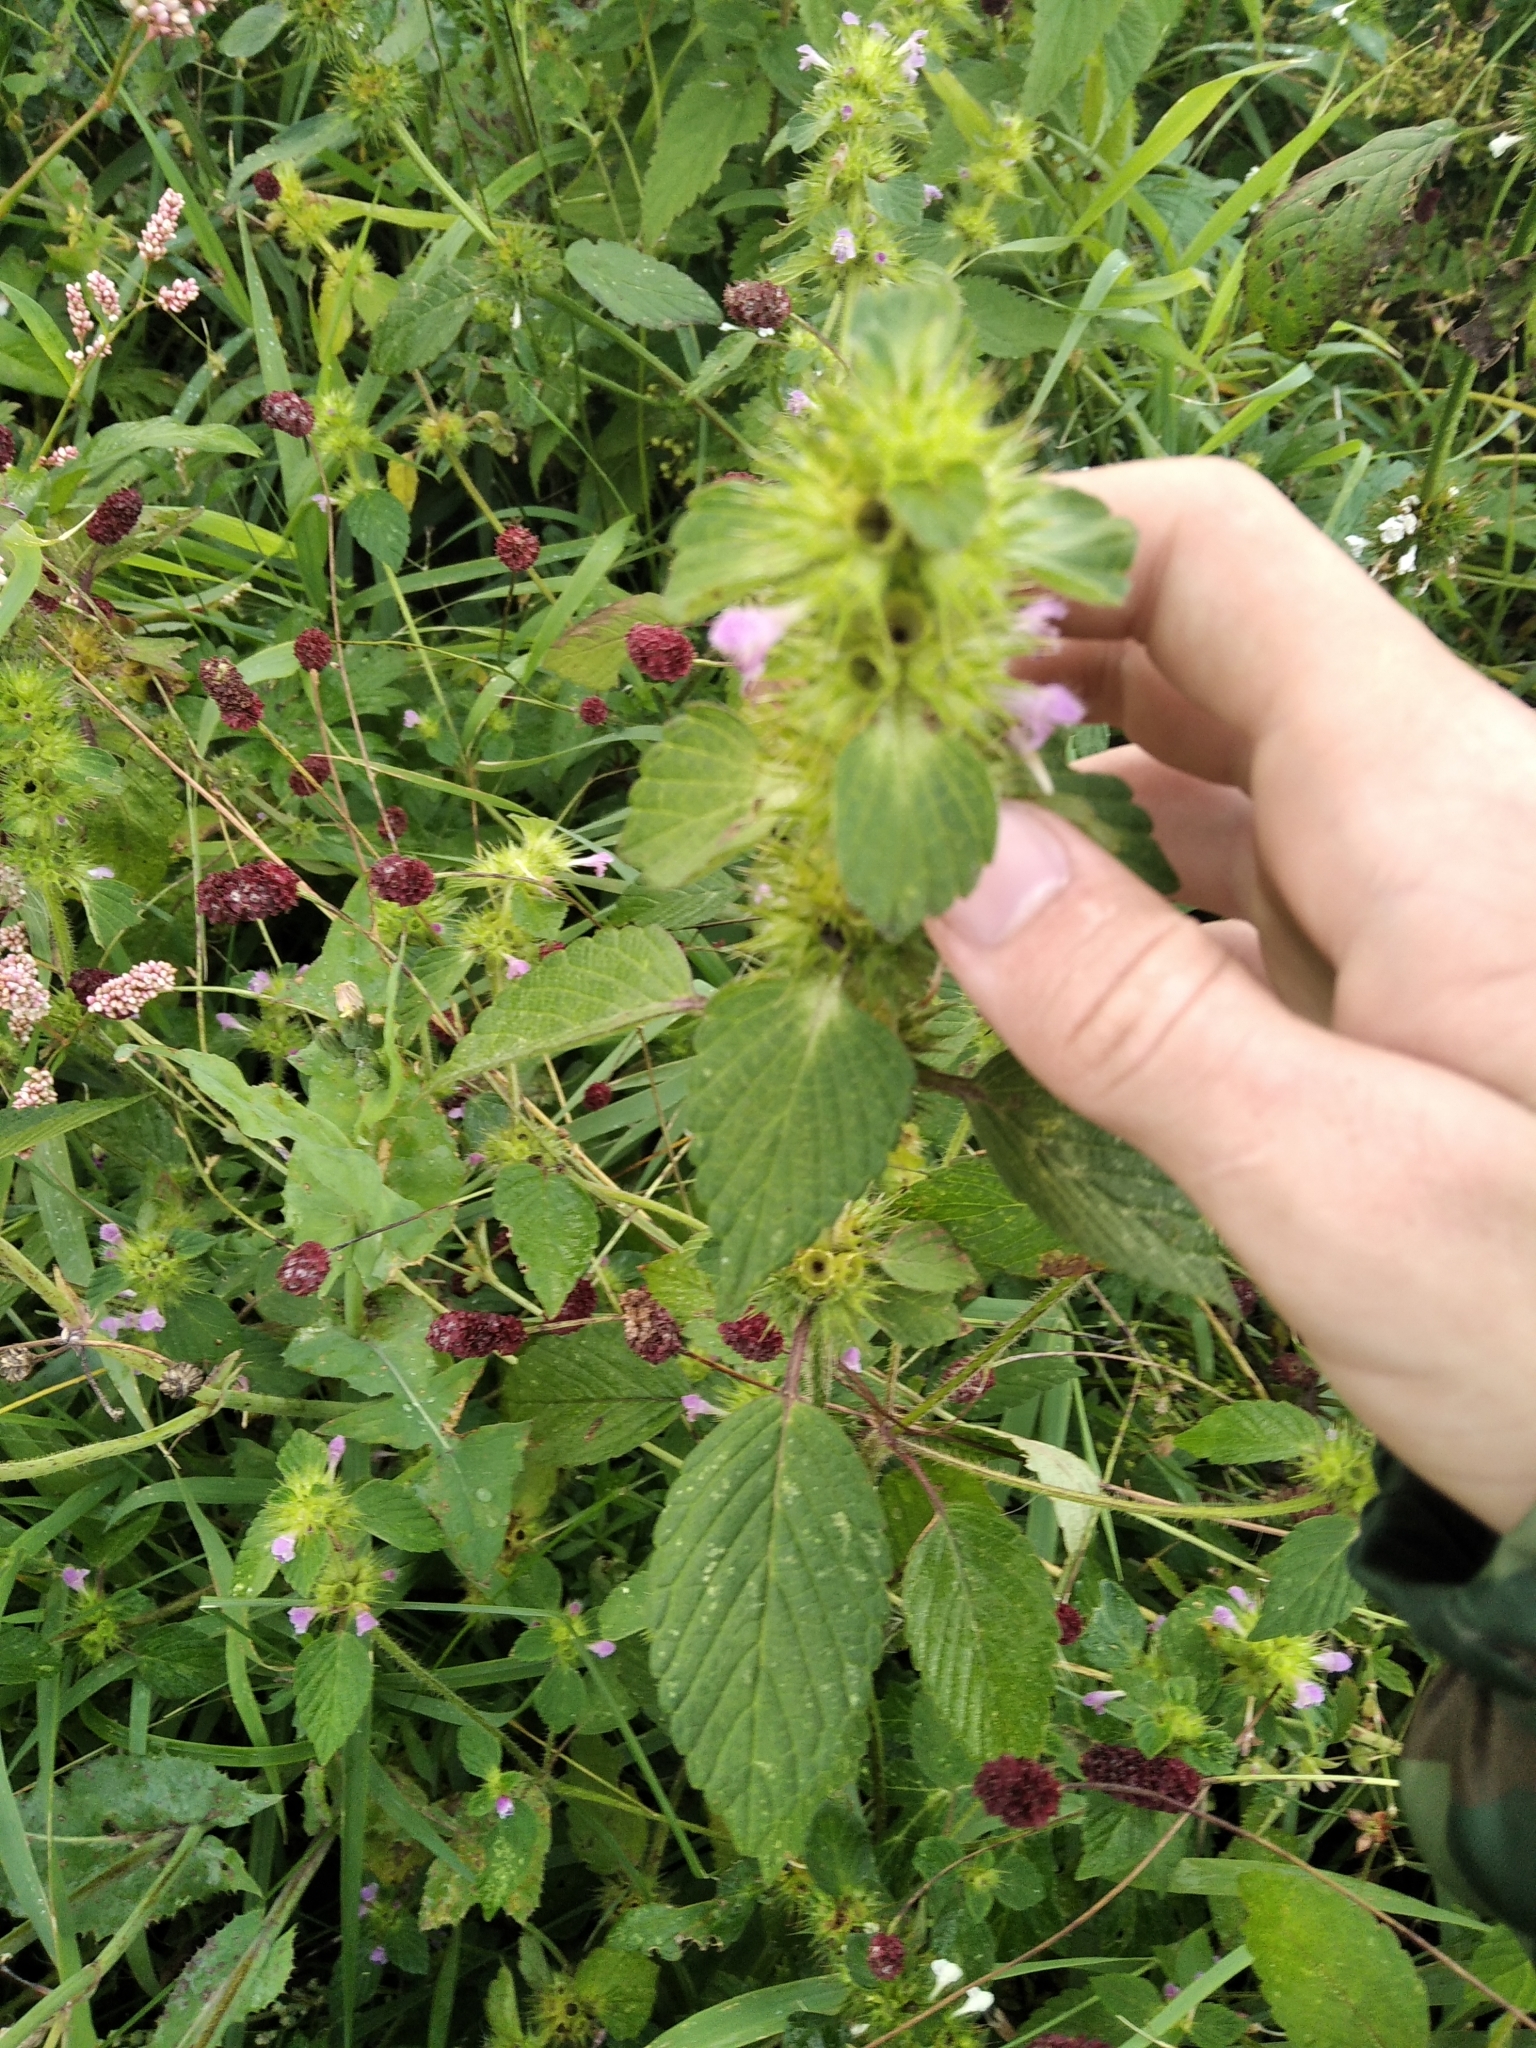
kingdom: Plantae
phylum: Tracheophyta
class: Magnoliopsida
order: Lamiales
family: Lamiaceae
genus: Galeopsis
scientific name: Galeopsis bifida
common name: Bifid hemp-nettle
